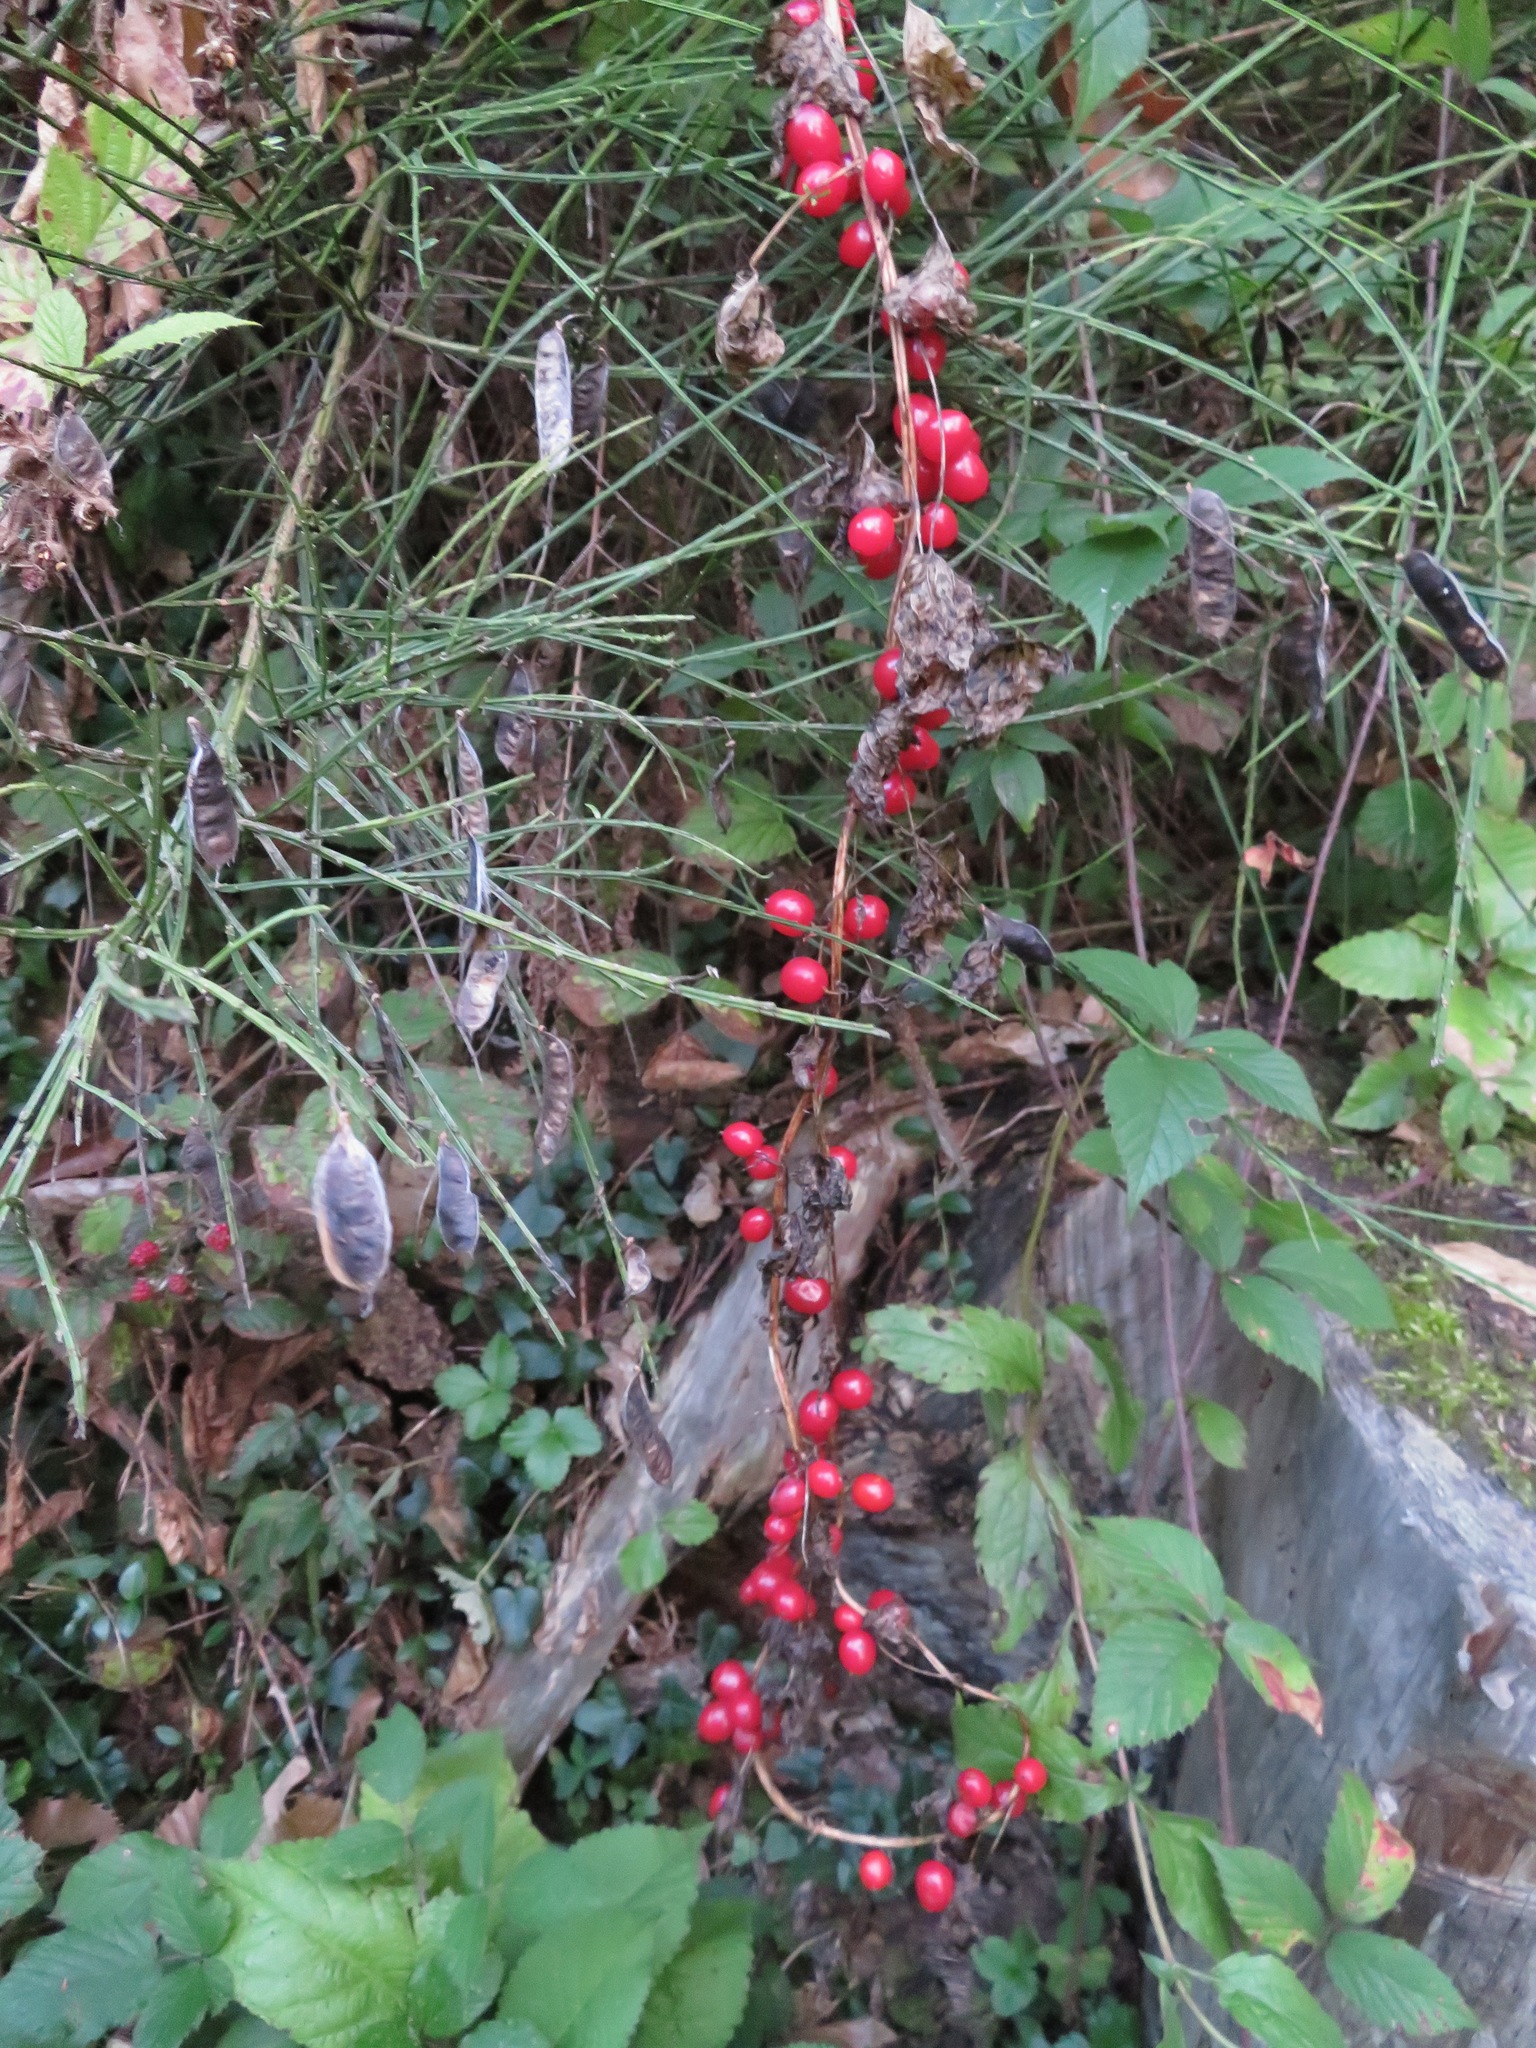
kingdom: Plantae
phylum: Tracheophyta
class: Liliopsida
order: Dioscoreales
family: Dioscoreaceae
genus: Dioscorea
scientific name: Dioscorea communis
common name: Black-bindweed
